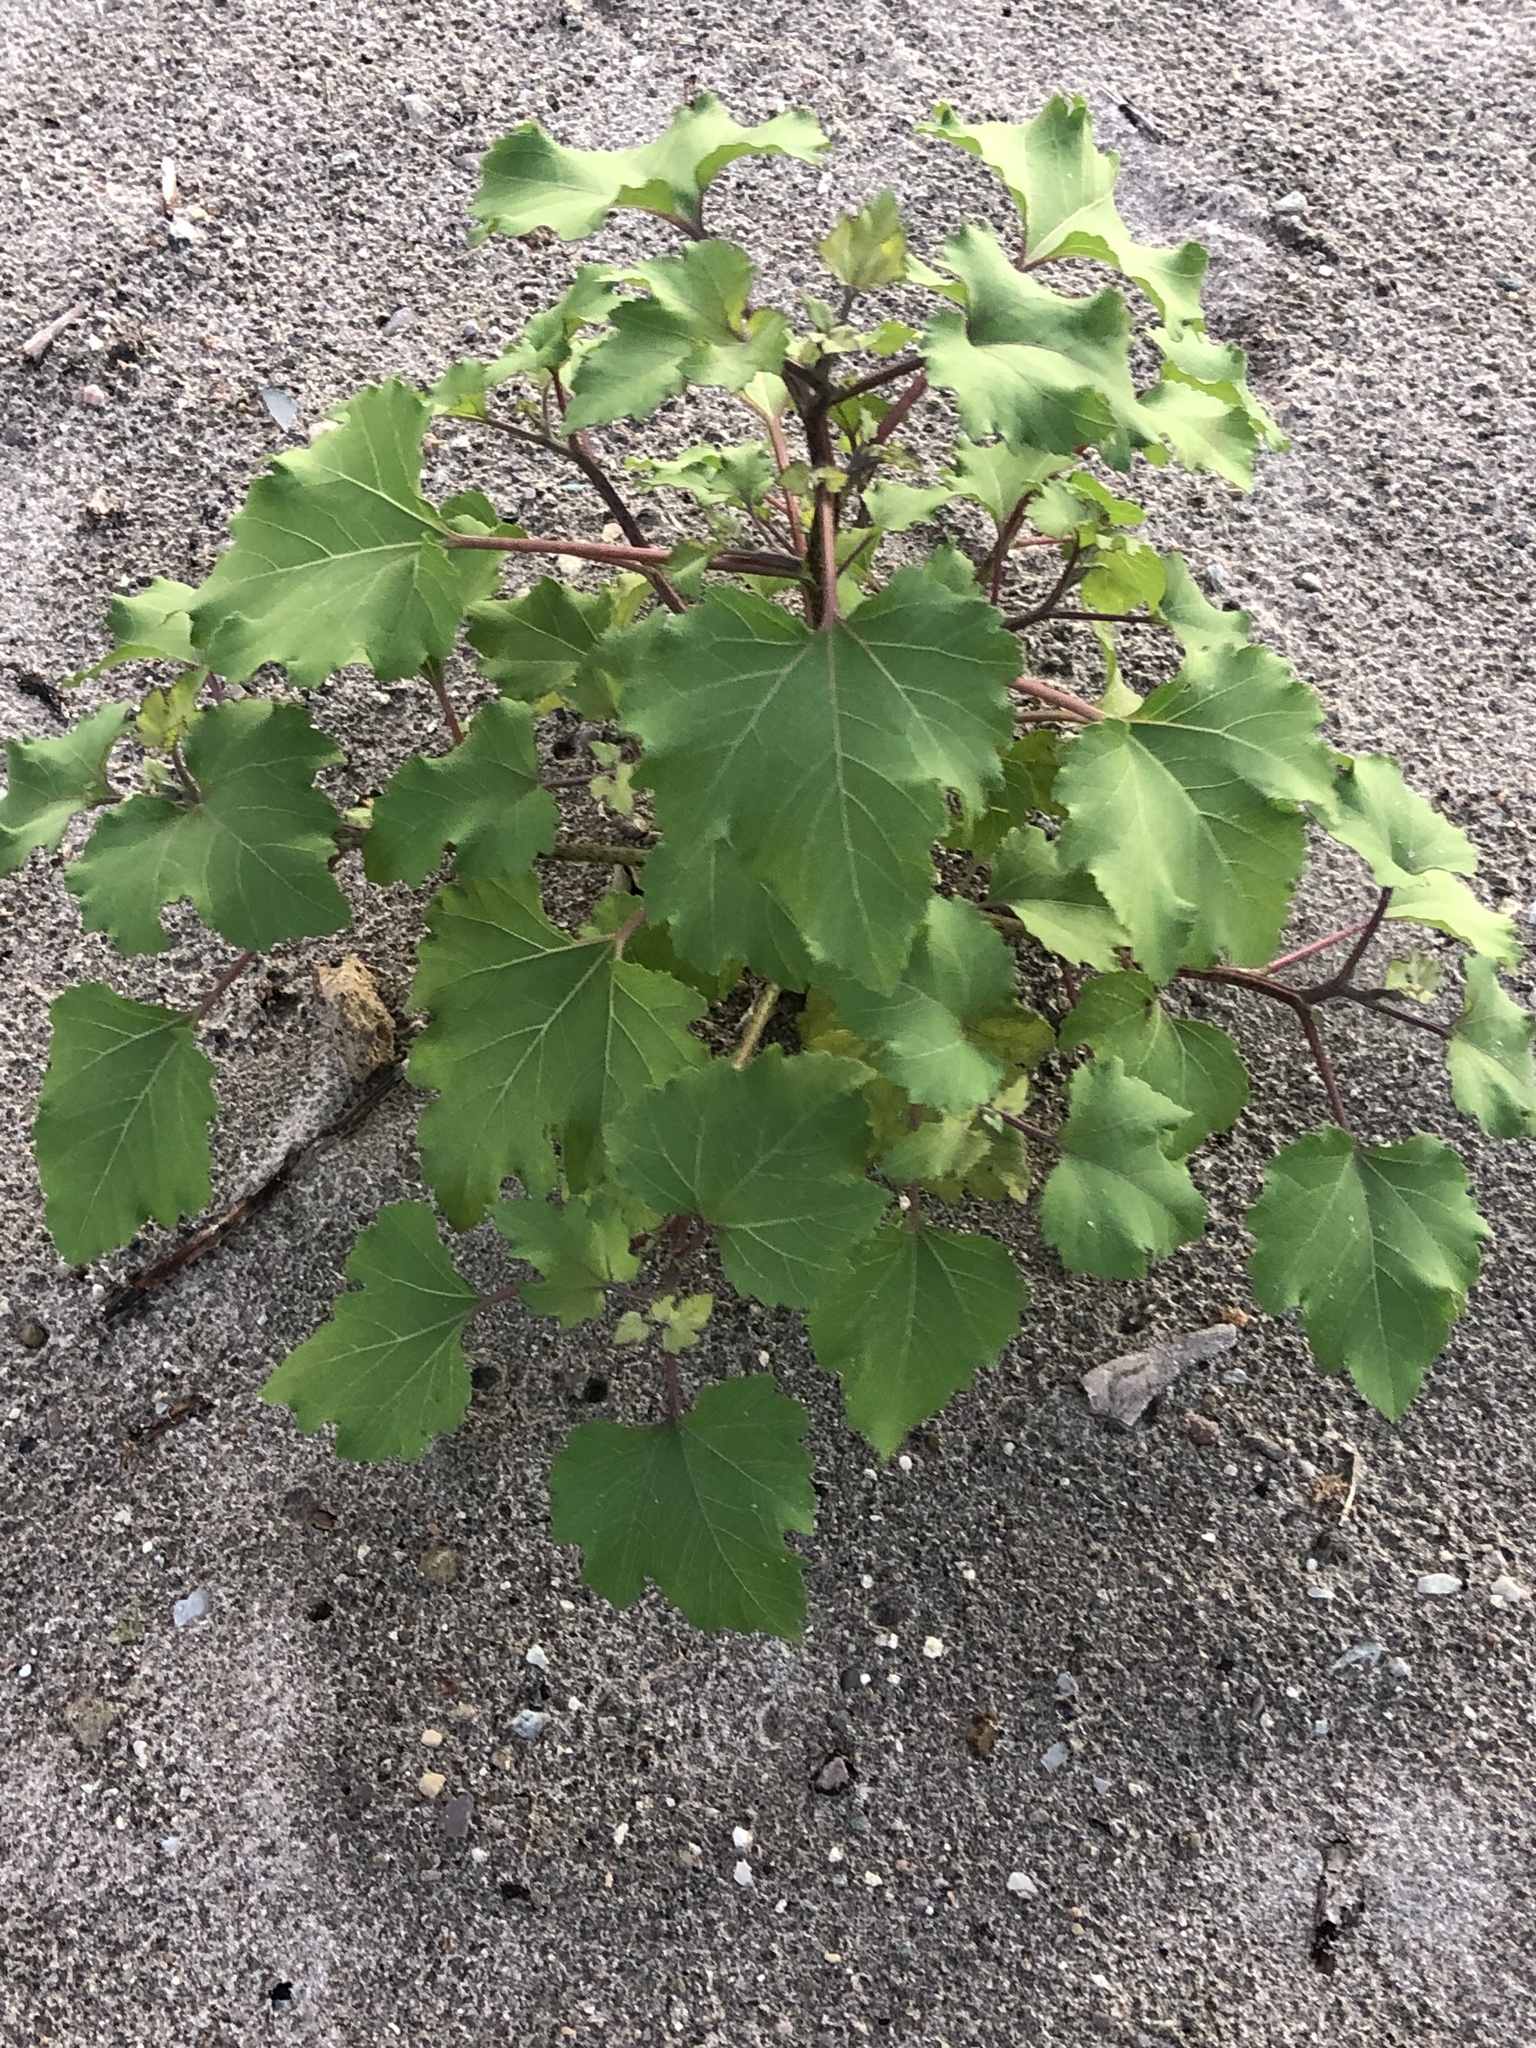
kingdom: Plantae
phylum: Tracheophyta
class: Magnoliopsida
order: Asterales
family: Asteraceae
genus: Xanthium
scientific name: Xanthium strumarium
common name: Rough cocklebur
